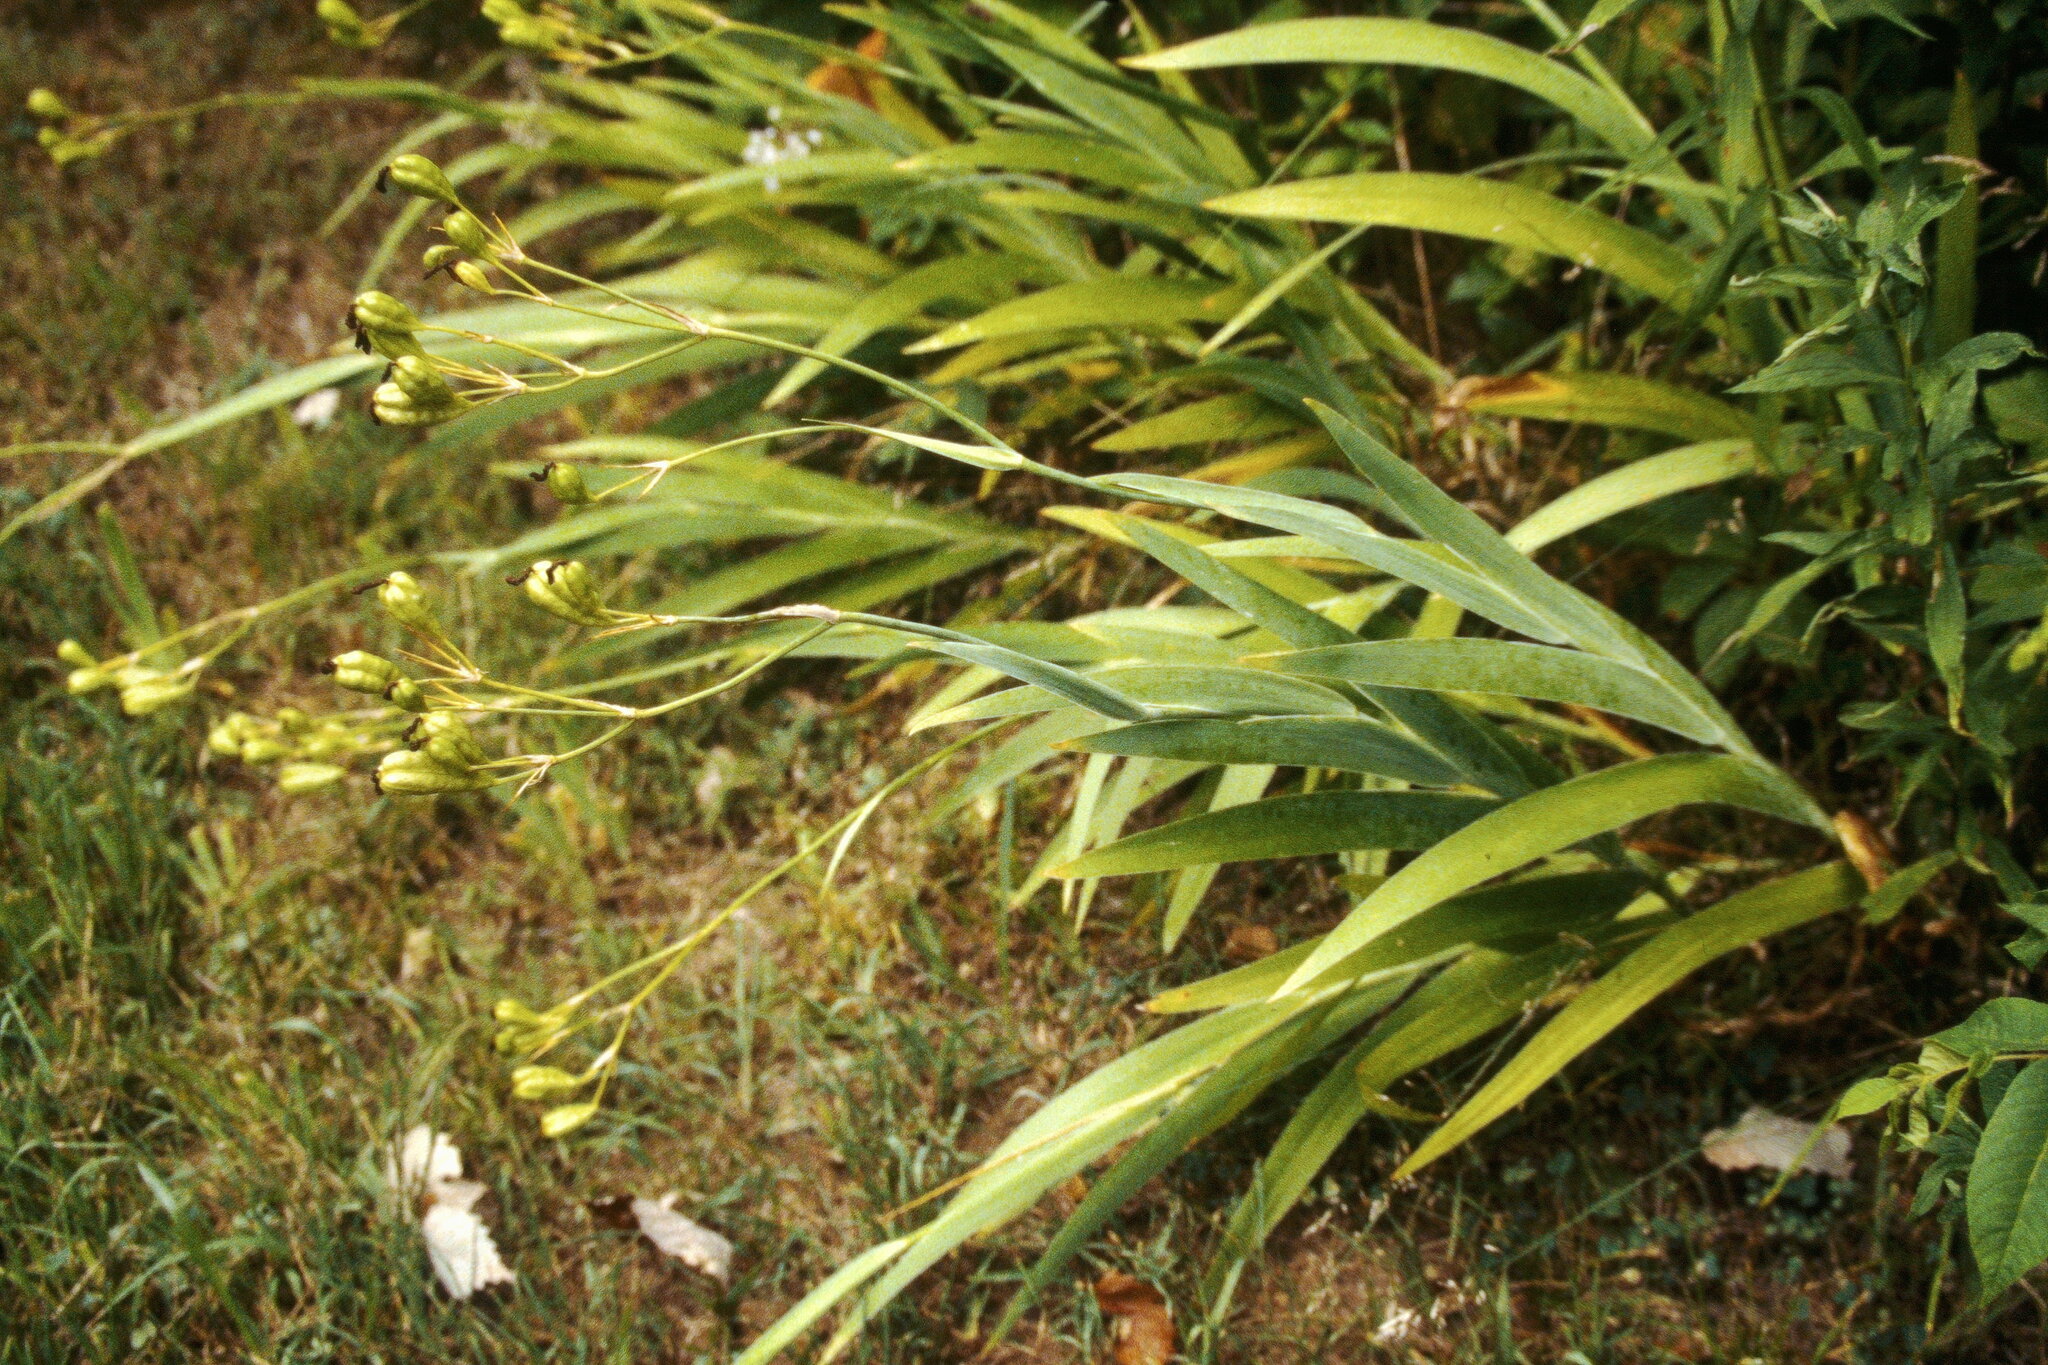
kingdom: Plantae
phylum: Tracheophyta
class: Liliopsida
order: Asparagales
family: Iridaceae
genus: Iris
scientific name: Iris domestica
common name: Belamcanda
